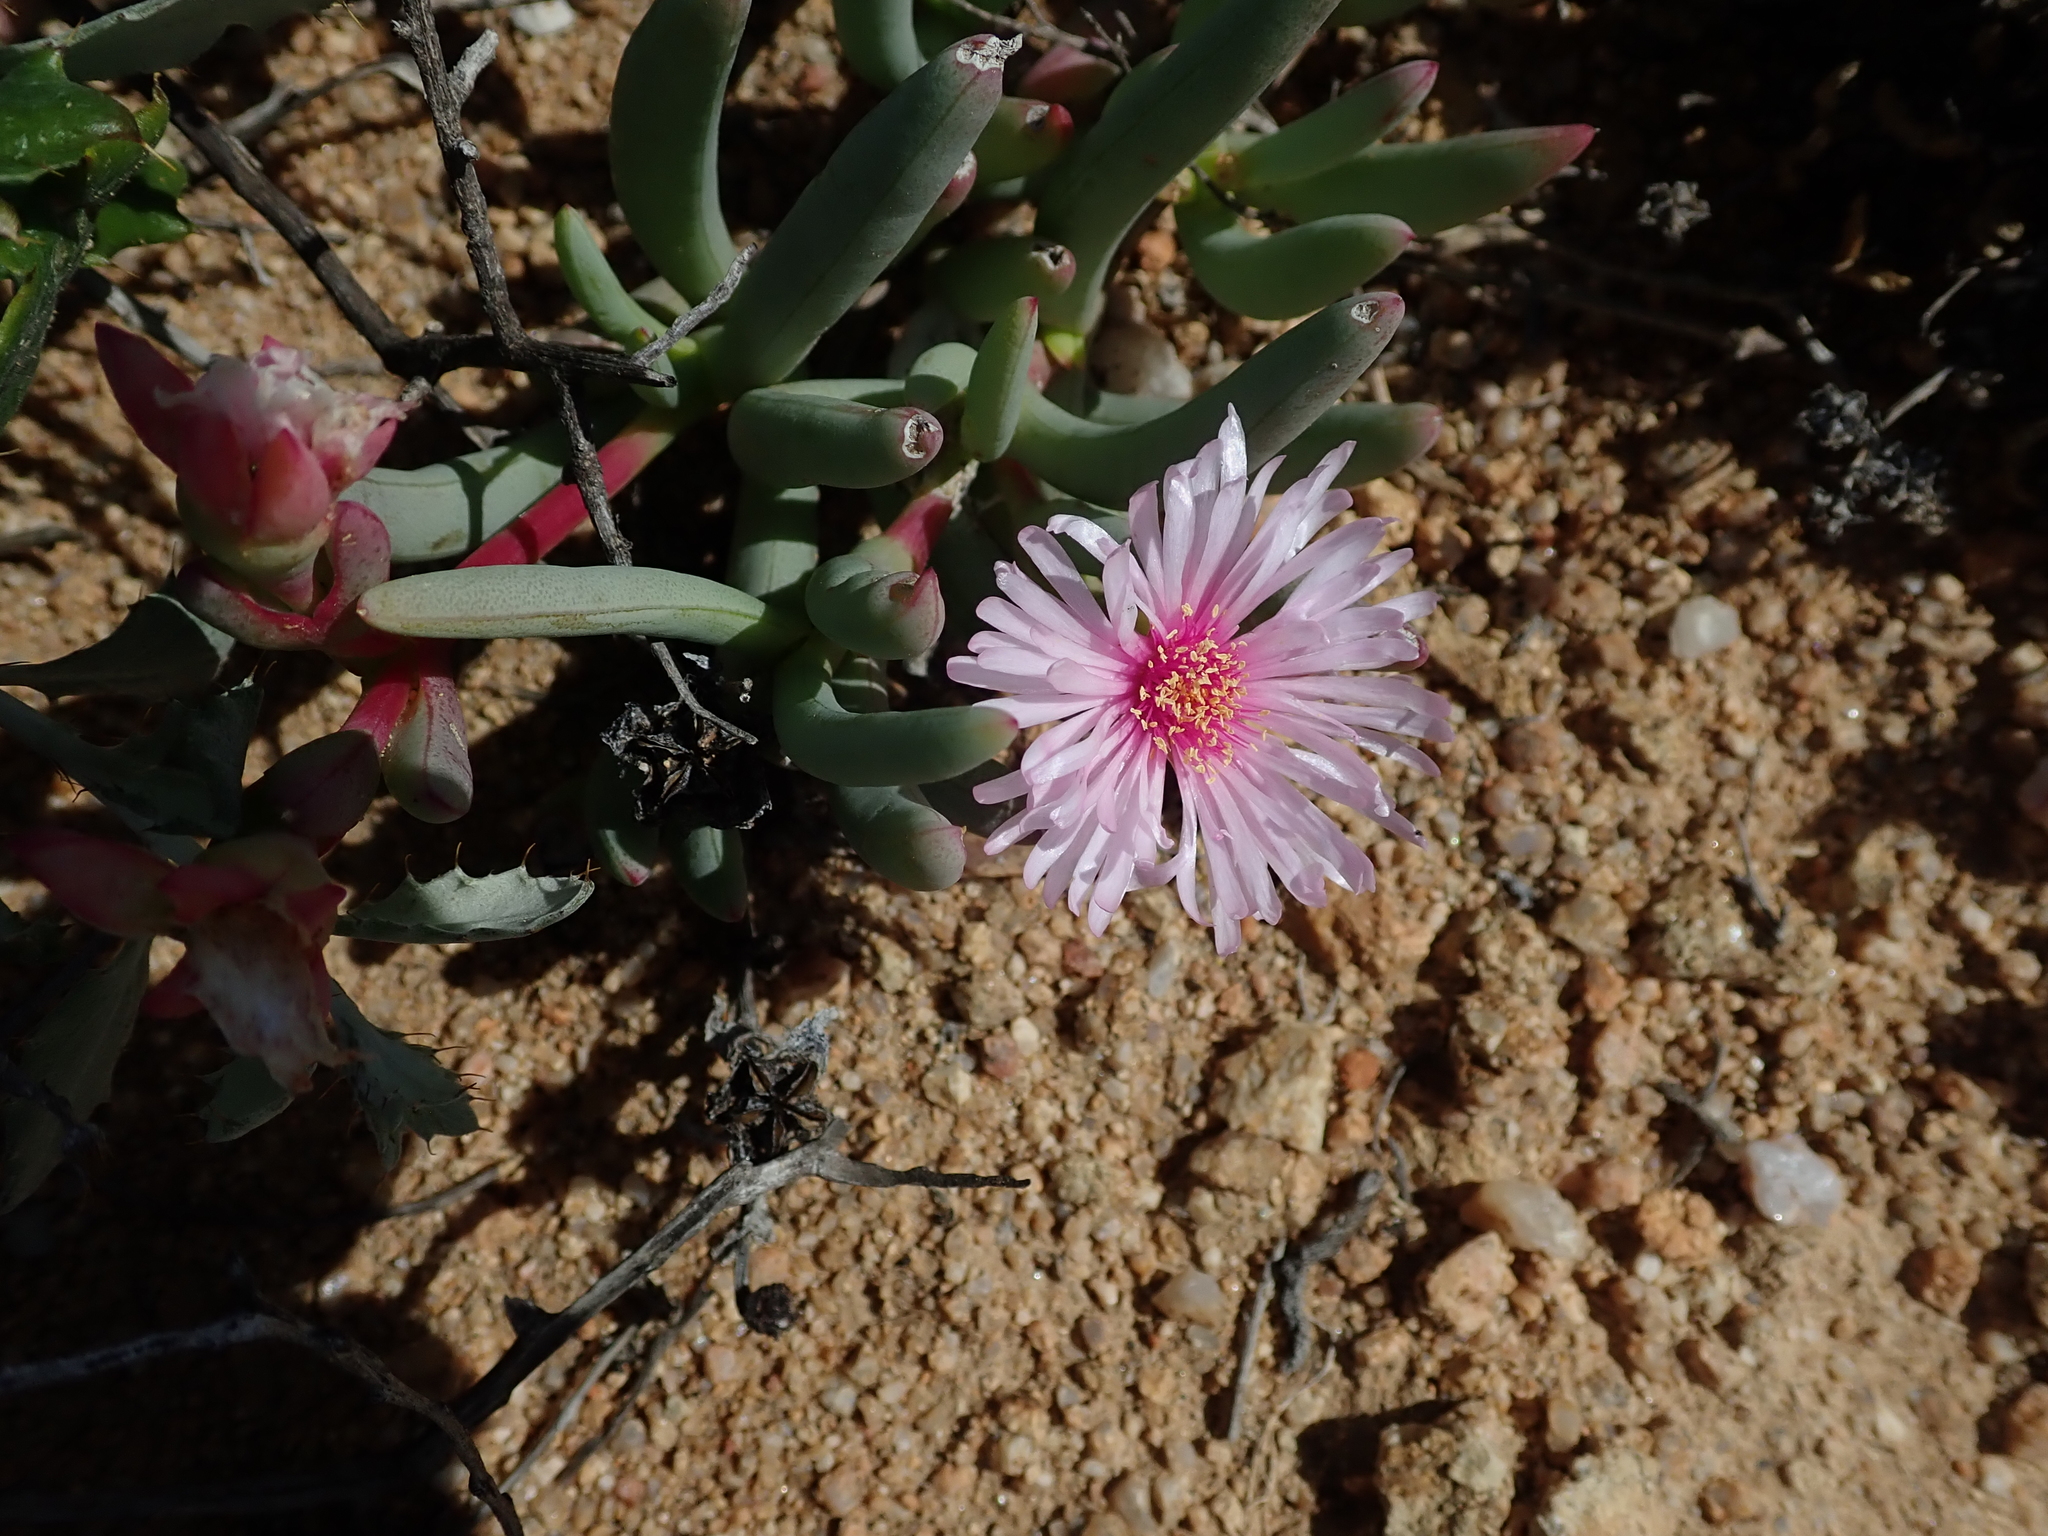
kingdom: Plantae
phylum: Tracheophyta
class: Magnoliopsida
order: Caryophyllales
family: Aizoaceae
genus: Ruschia
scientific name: Ruschia goodiae
